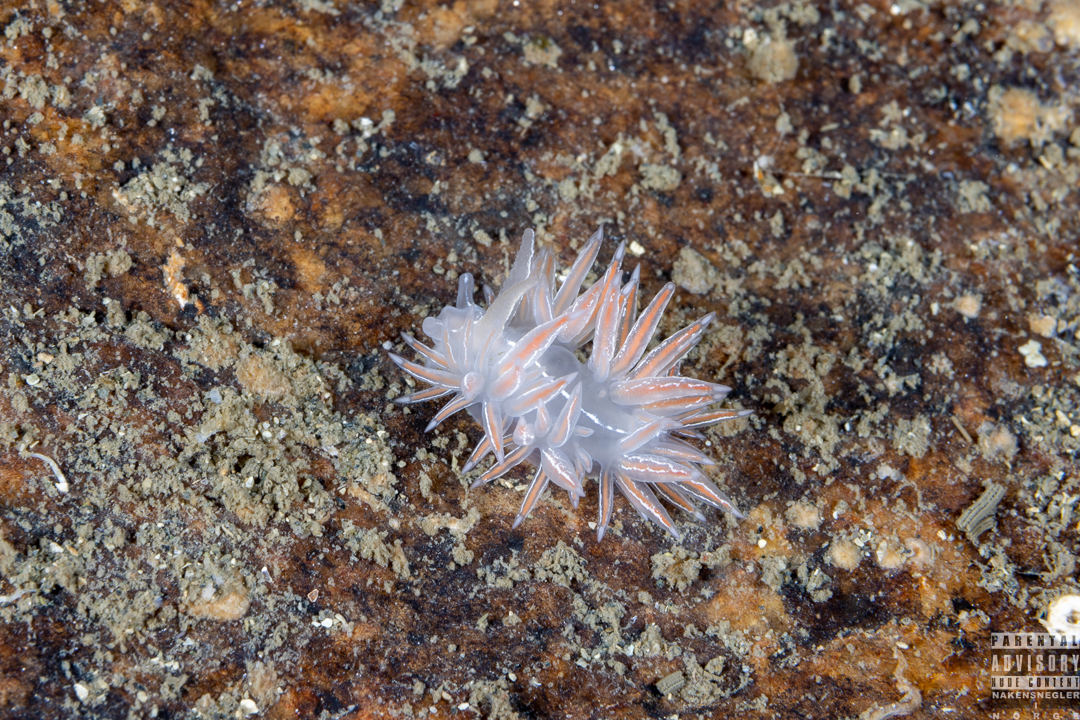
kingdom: Animalia
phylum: Mollusca
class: Gastropoda
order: Nudibranchia
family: Coryphellidae
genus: Coryphella
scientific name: Coryphella chriskaugei
